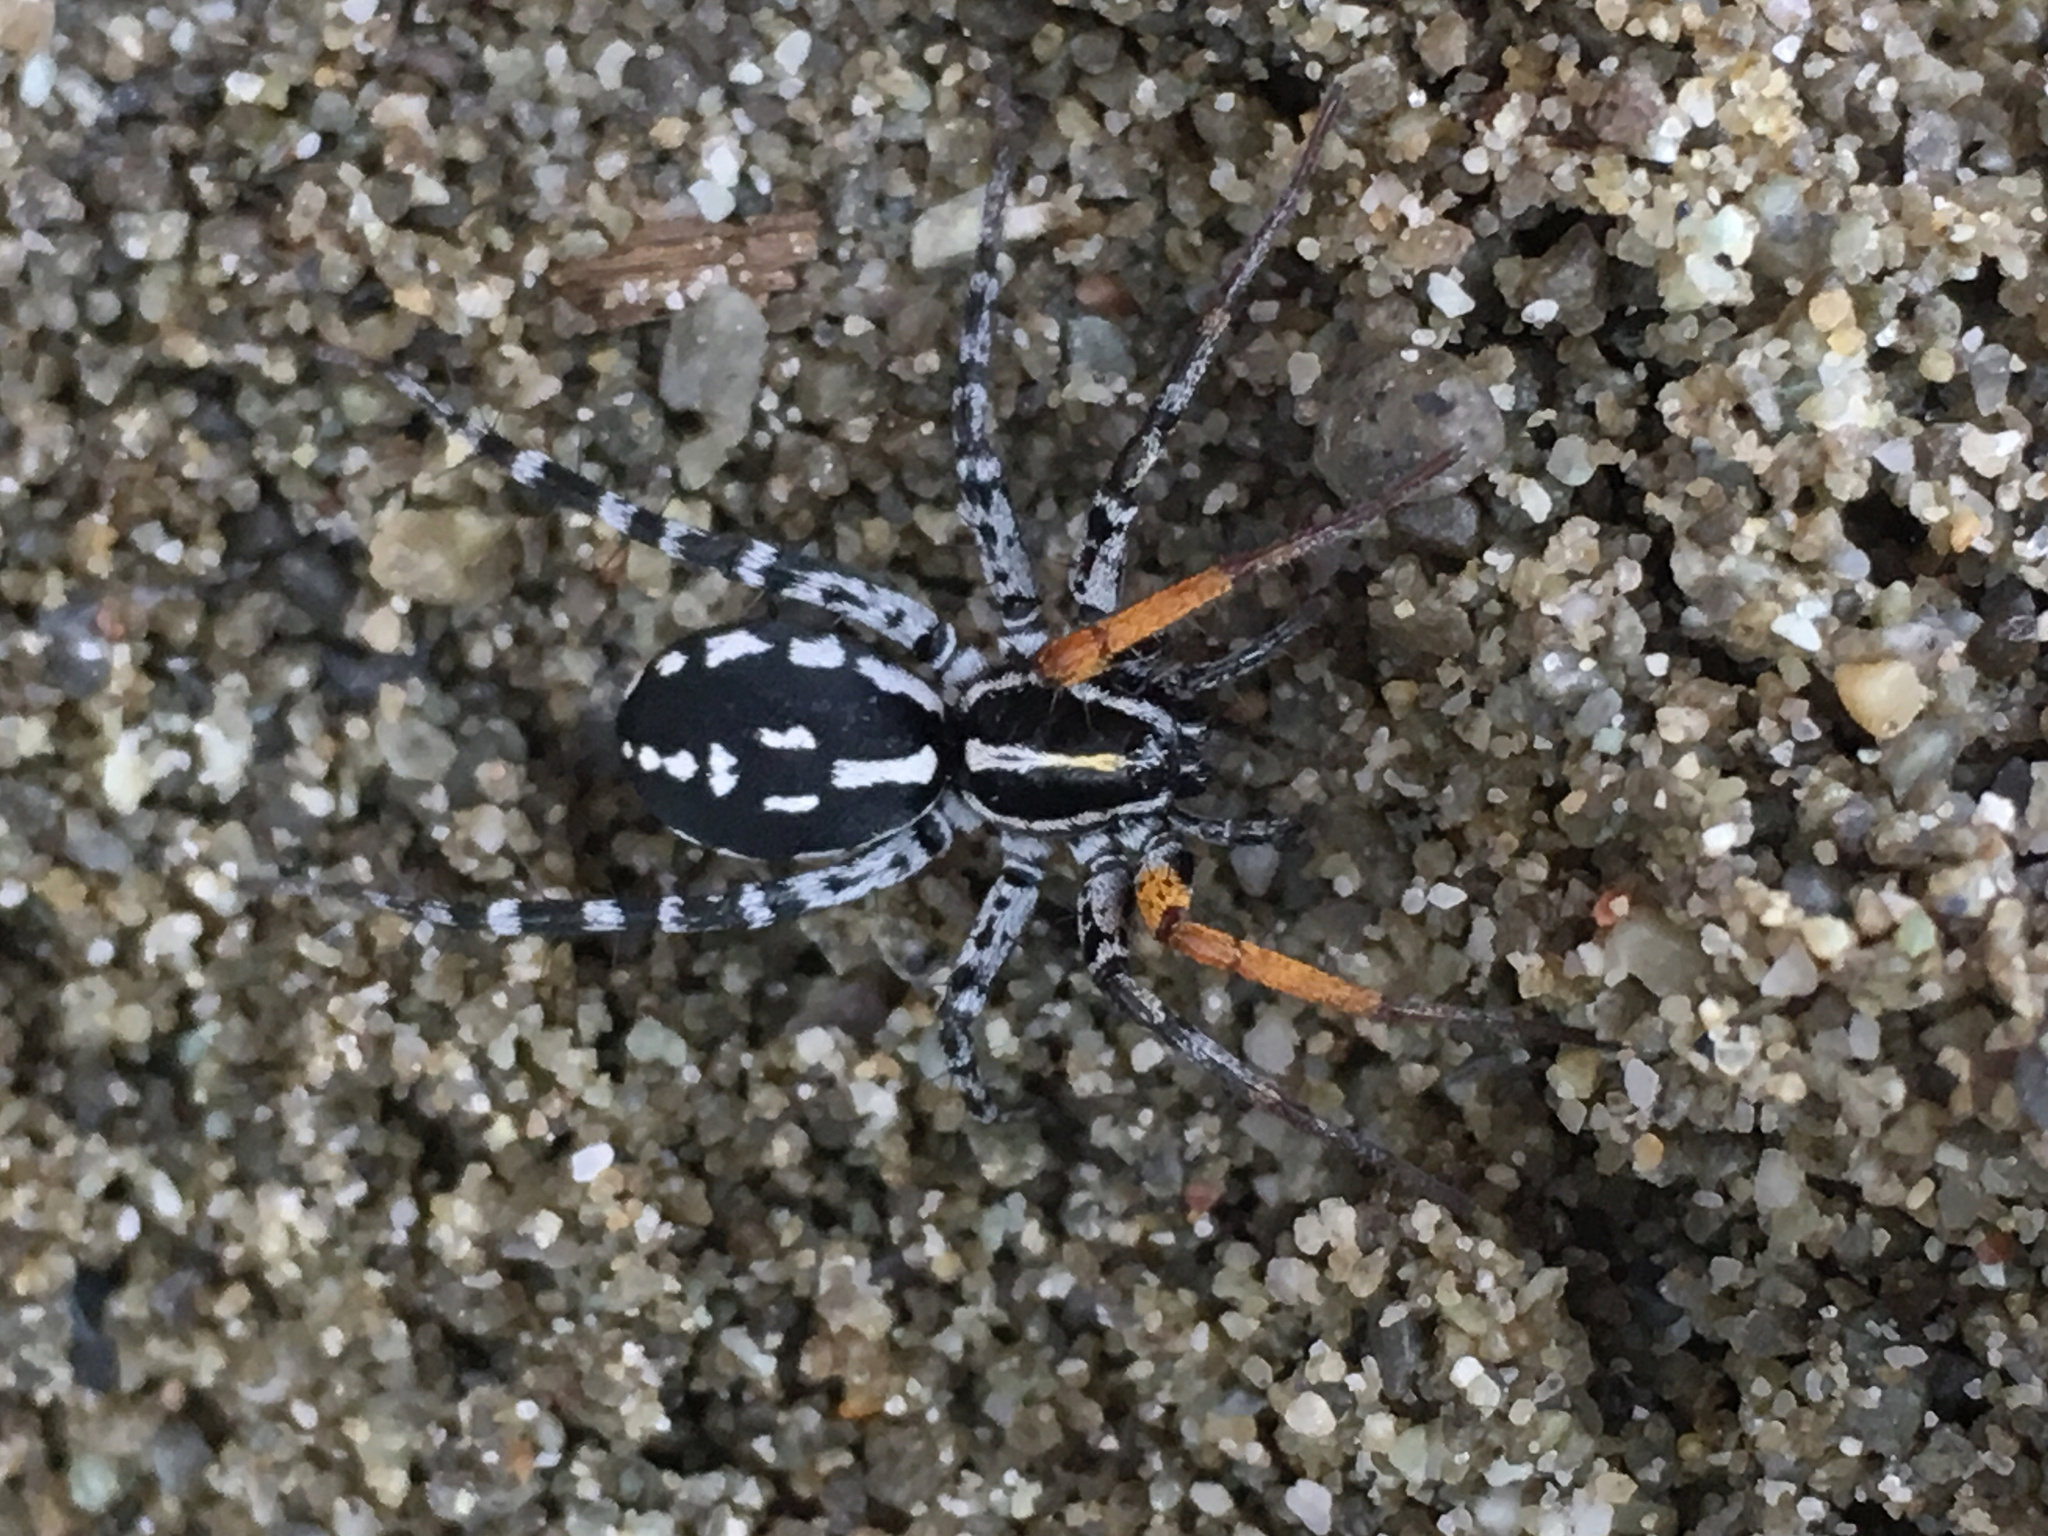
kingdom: Animalia
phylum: Arthropoda
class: Arachnida
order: Araneae
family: Corinnidae
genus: Nyssus
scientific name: Nyssus coloripes
